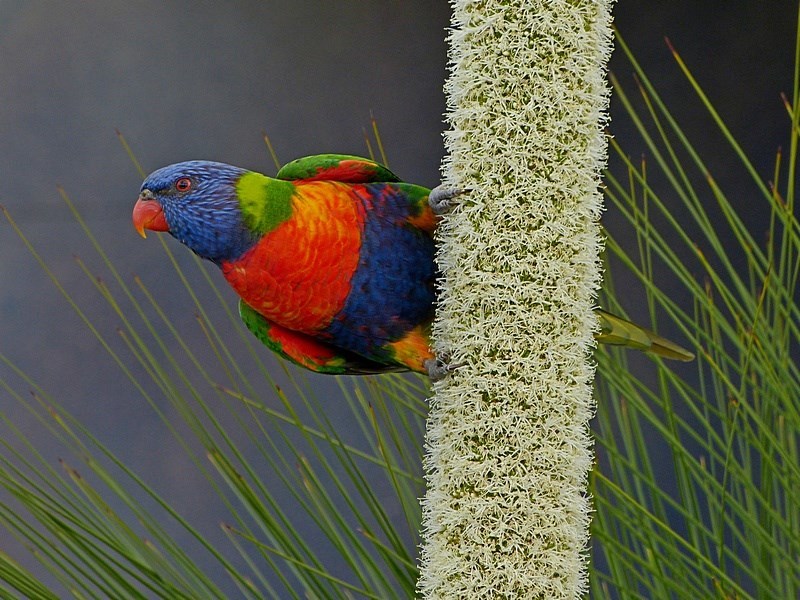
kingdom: Animalia
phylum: Chordata
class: Aves
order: Psittaciformes
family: Psittacidae
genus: Trichoglossus
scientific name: Trichoglossus haematodus
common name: Coconut lorikeet
